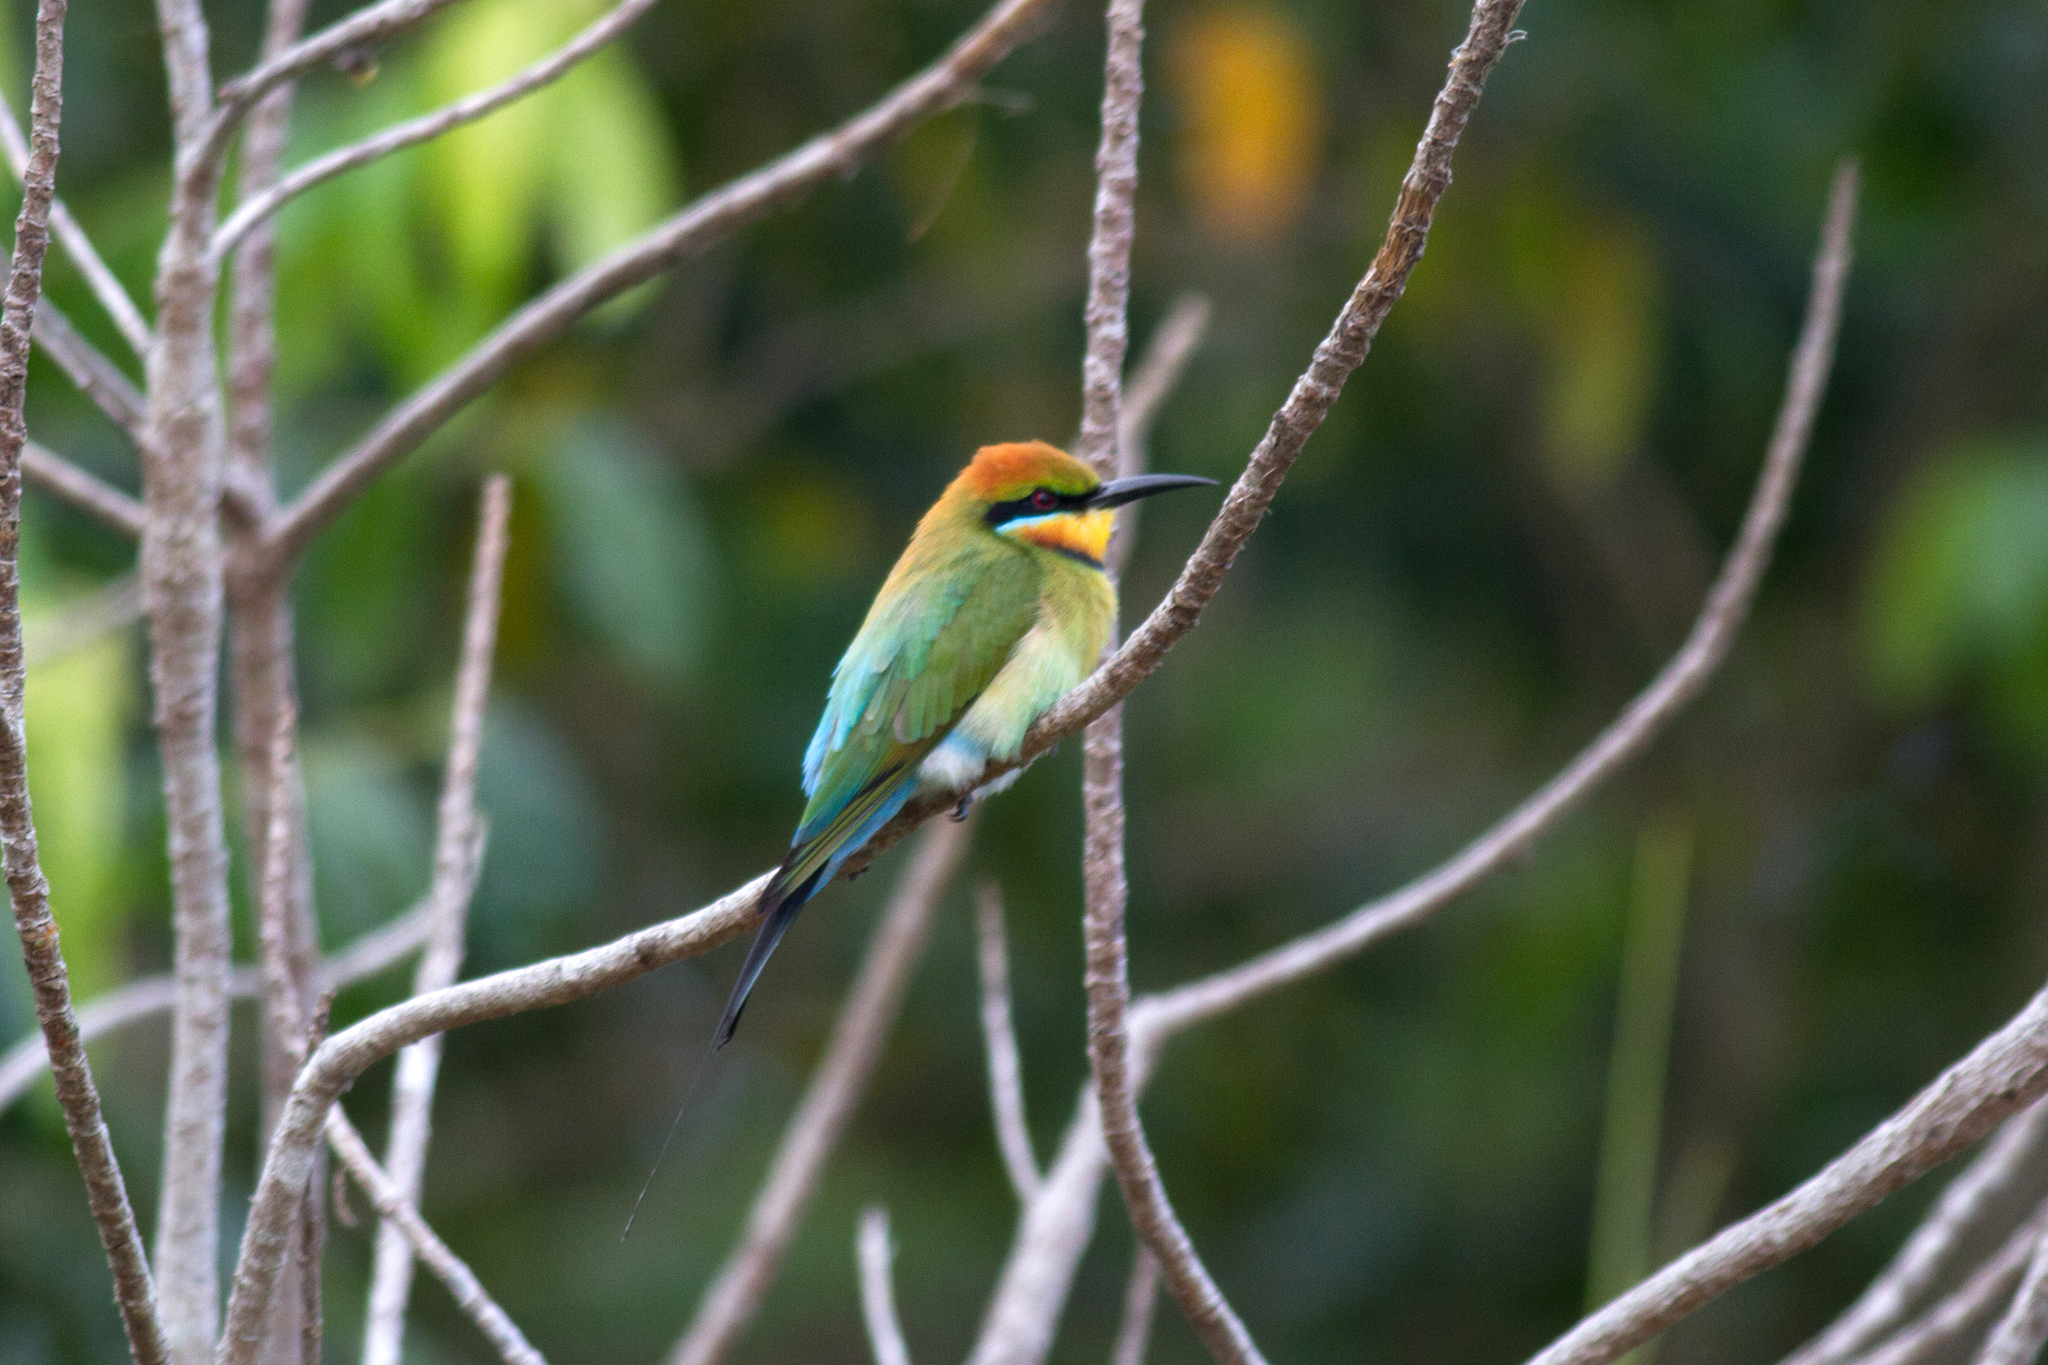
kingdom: Animalia
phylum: Chordata
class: Aves
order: Coraciiformes
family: Meropidae
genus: Merops
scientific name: Merops ornatus
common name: Rainbow bee-eater
